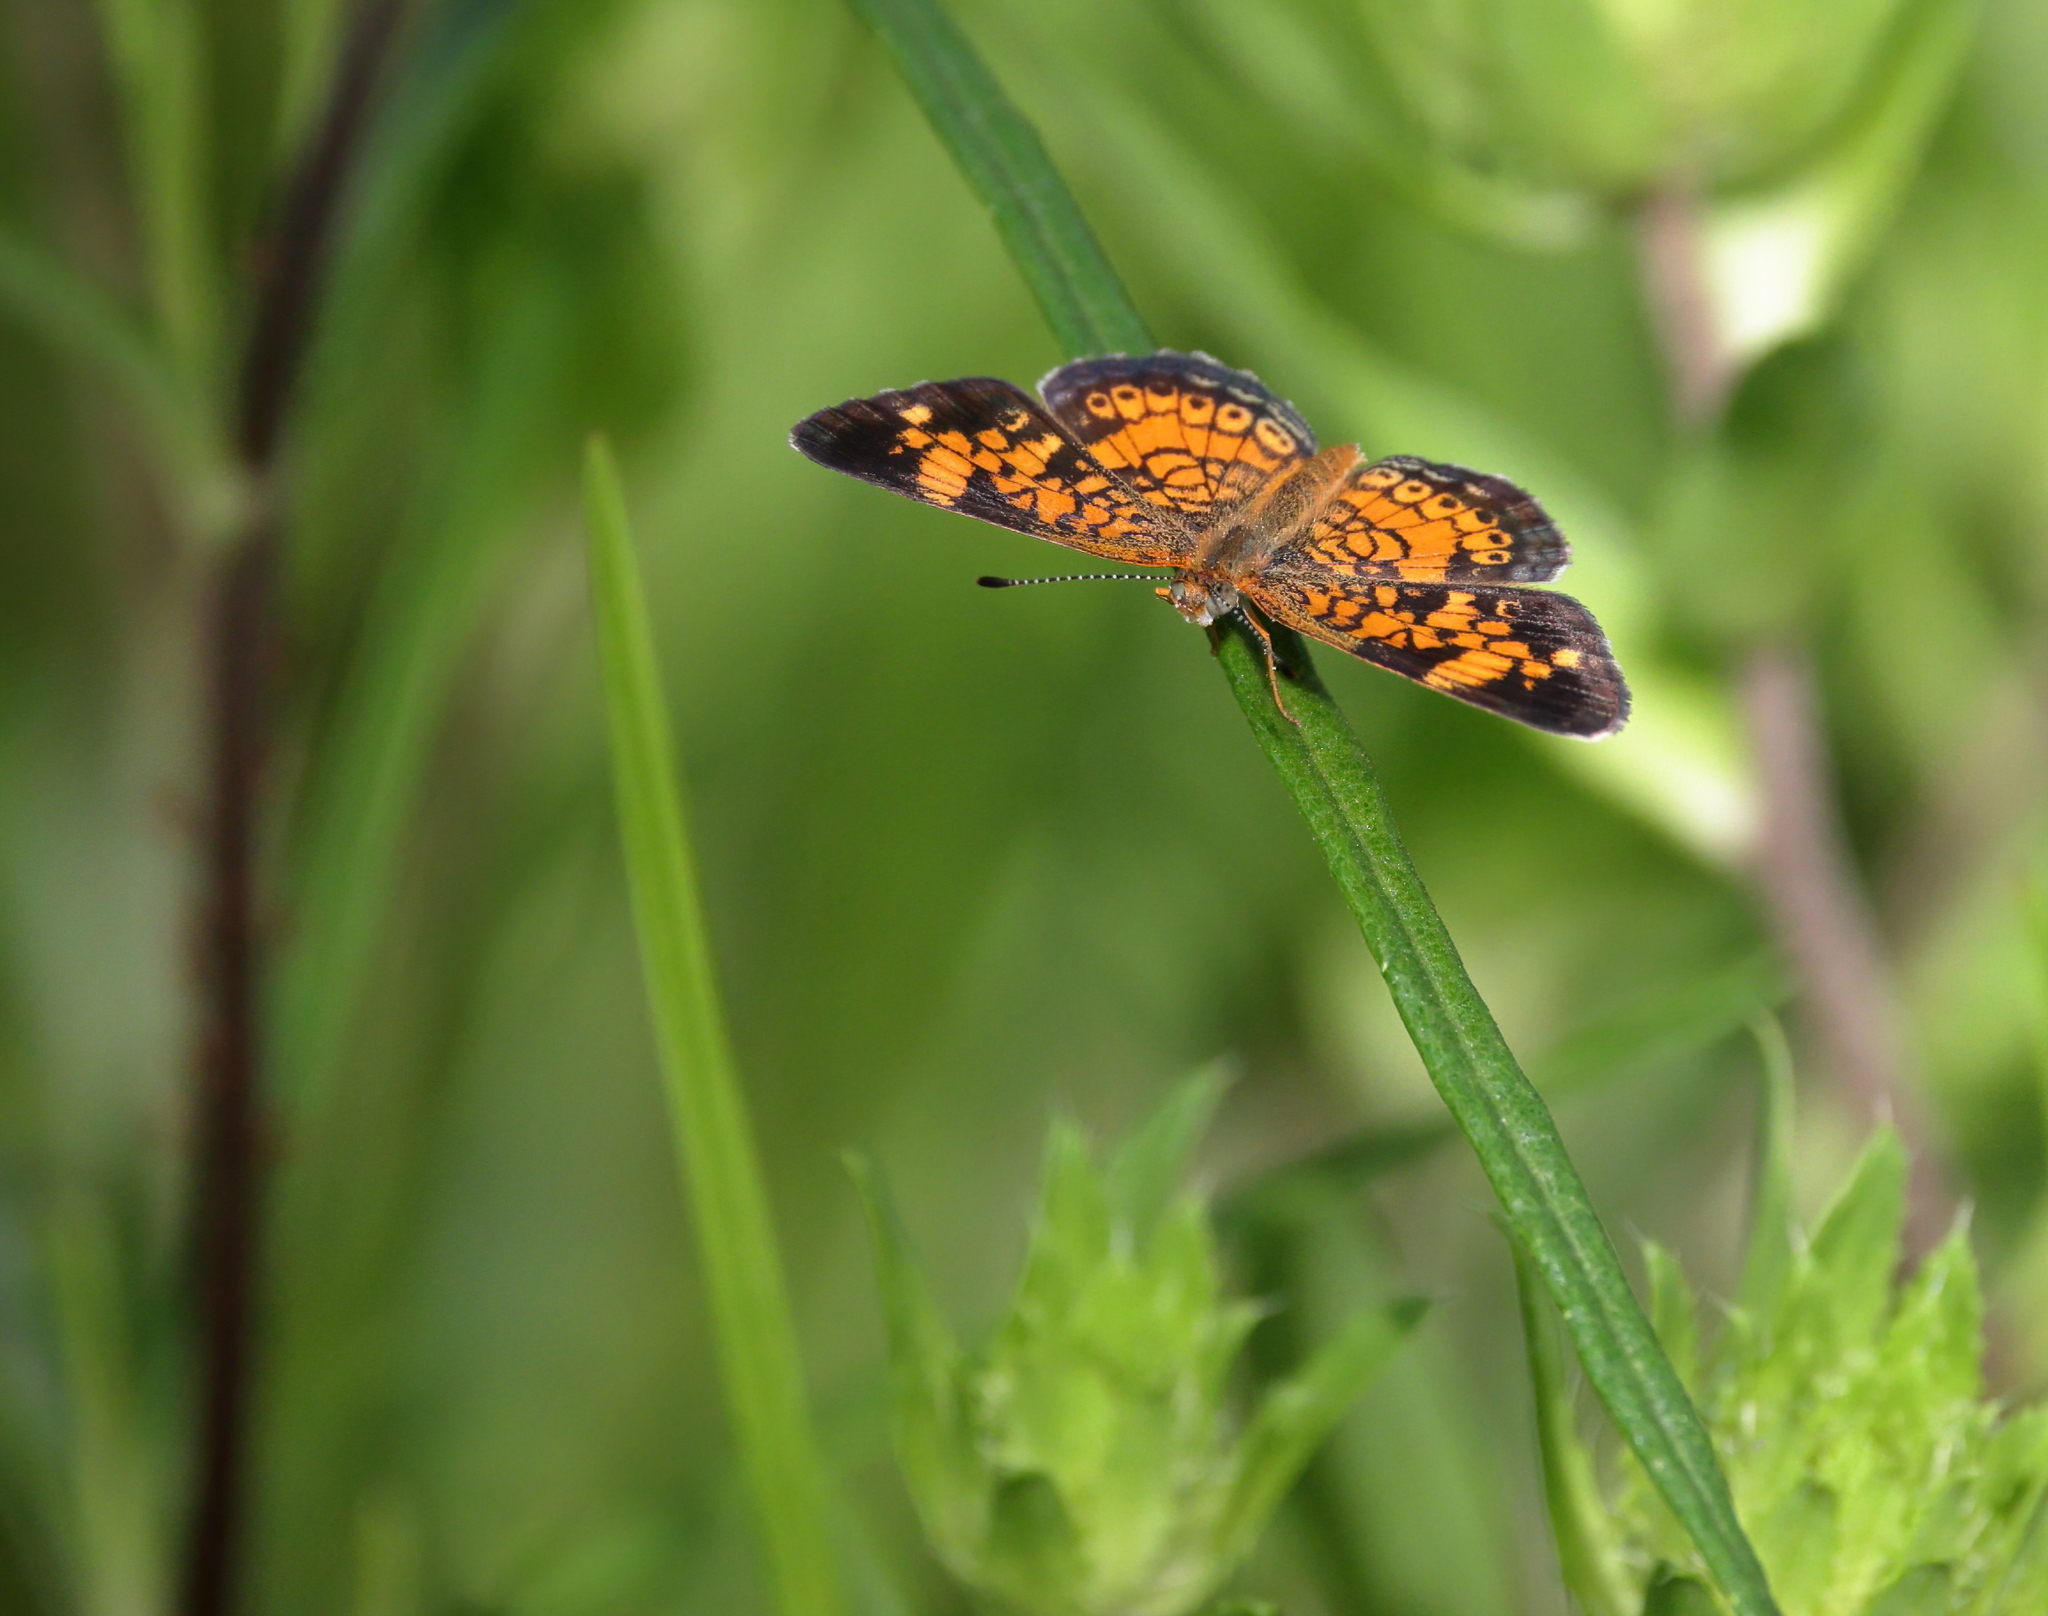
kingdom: Animalia
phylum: Arthropoda
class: Insecta
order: Lepidoptera
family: Nymphalidae
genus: Phyciodes
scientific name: Phyciodes tharos
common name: Pearl crescent
